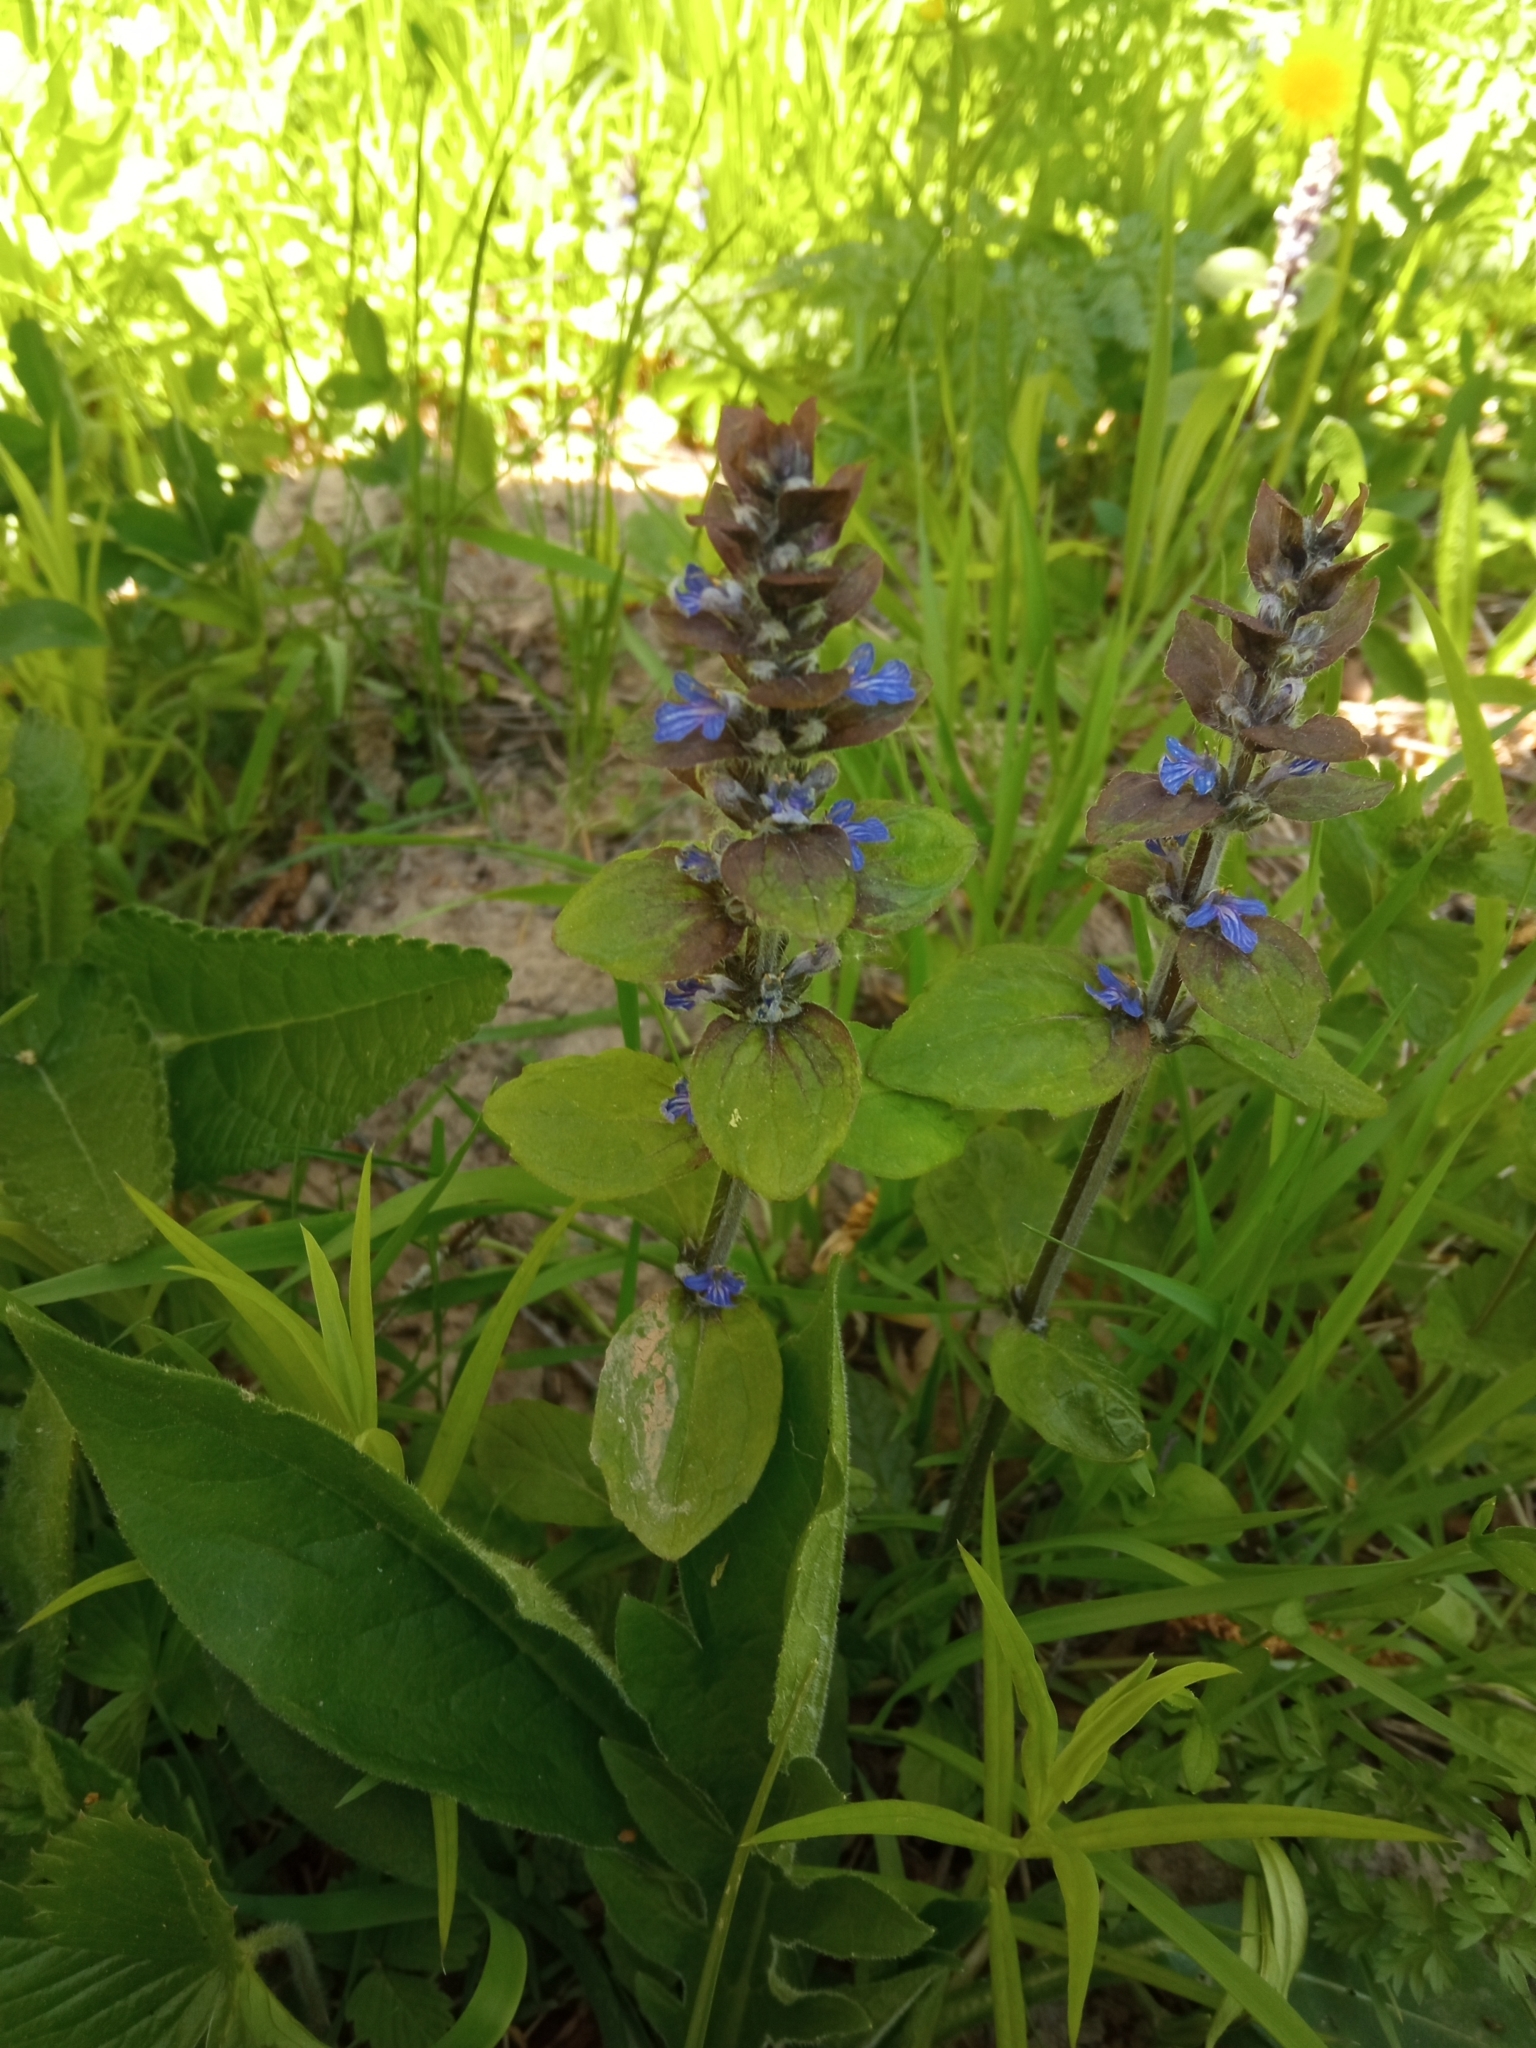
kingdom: Plantae
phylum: Tracheophyta
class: Magnoliopsida
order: Lamiales
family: Lamiaceae
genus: Ajuga
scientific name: Ajuga reptans
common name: Bugle
